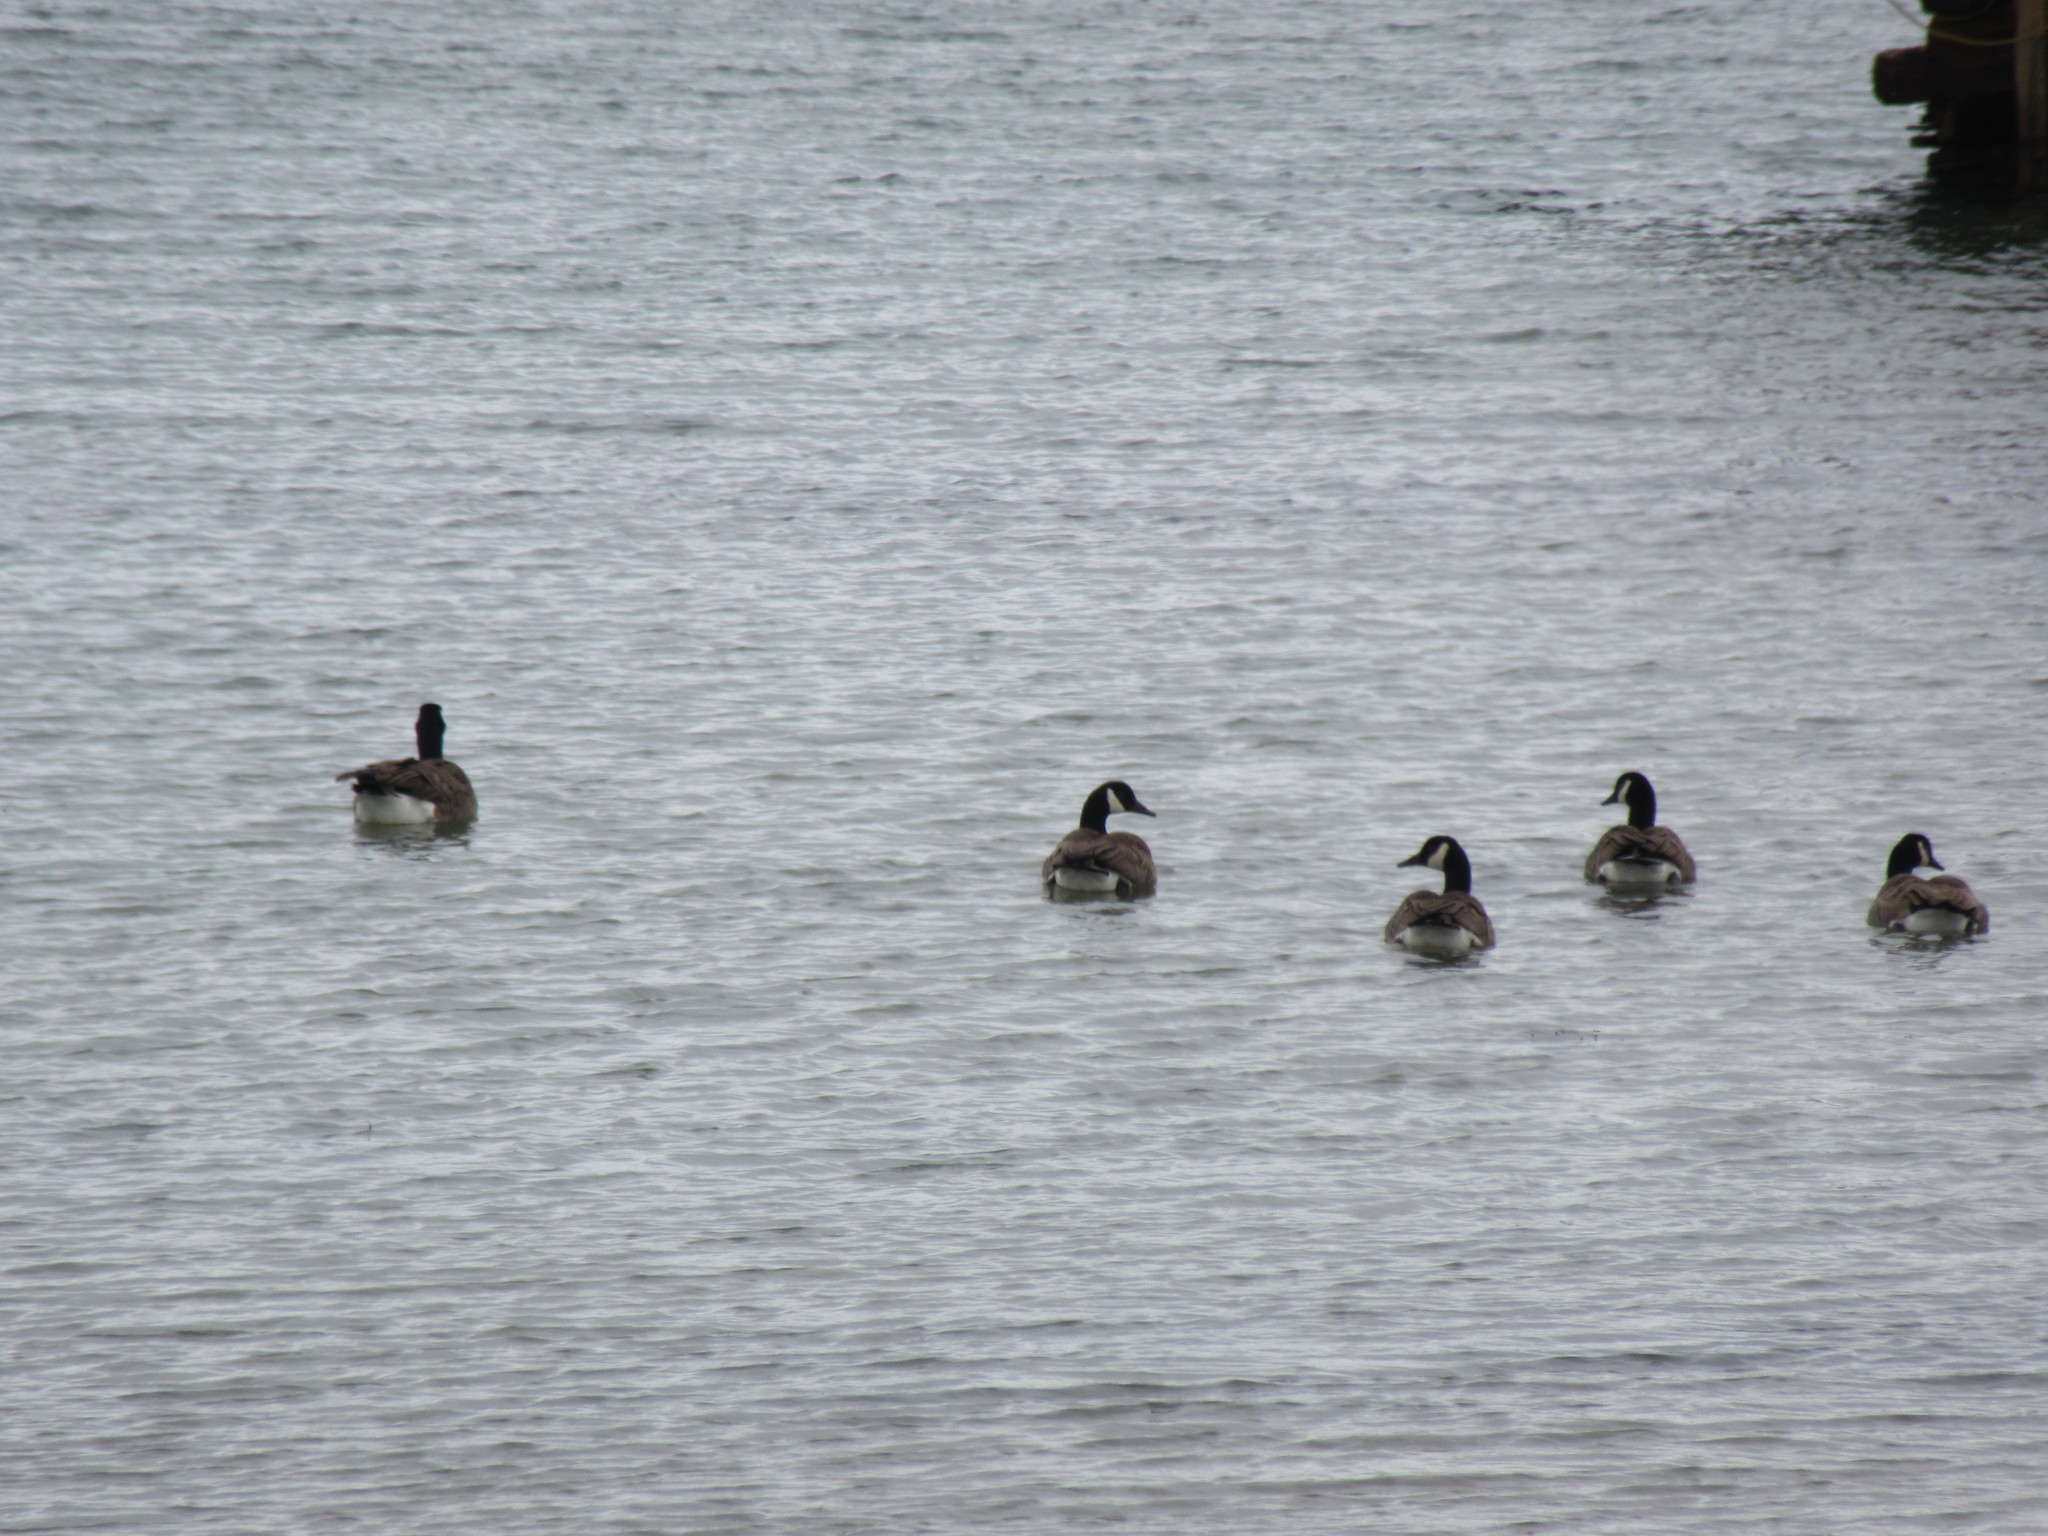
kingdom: Animalia
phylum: Chordata
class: Aves
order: Anseriformes
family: Anatidae
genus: Branta
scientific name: Branta canadensis
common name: Canada goose
